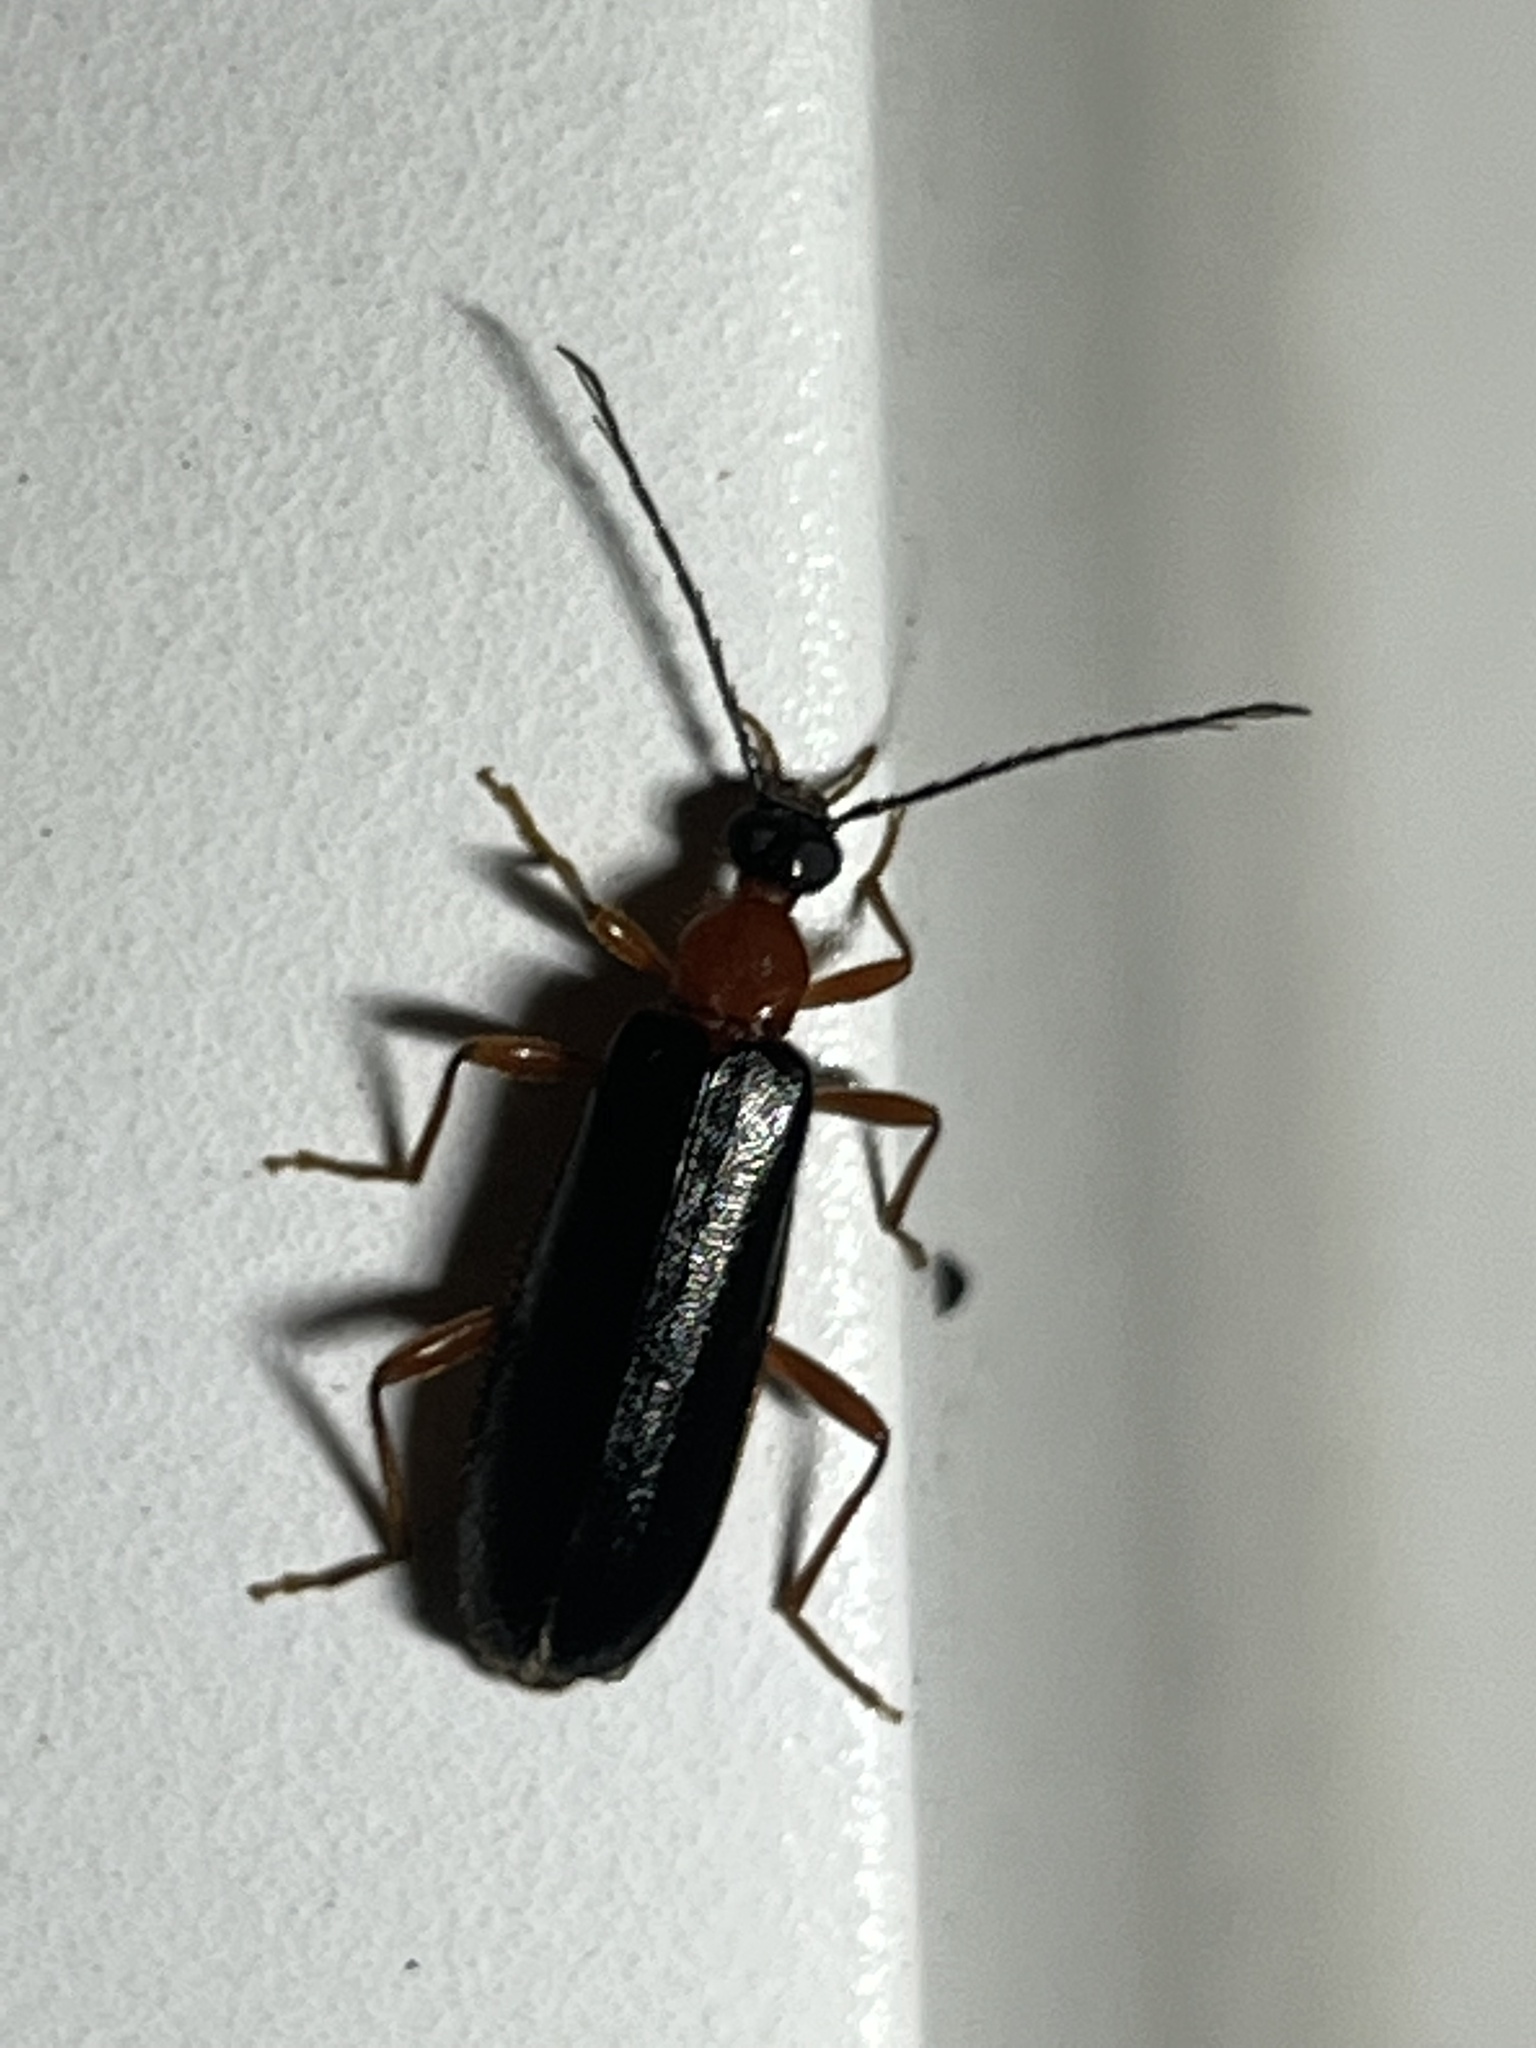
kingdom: Animalia
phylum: Arthropoda
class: Insecta
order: Coleoptera
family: Pyrochroidae
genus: Dendroides
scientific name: Dendroides canadensis
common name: Canada fire-colored beetle
